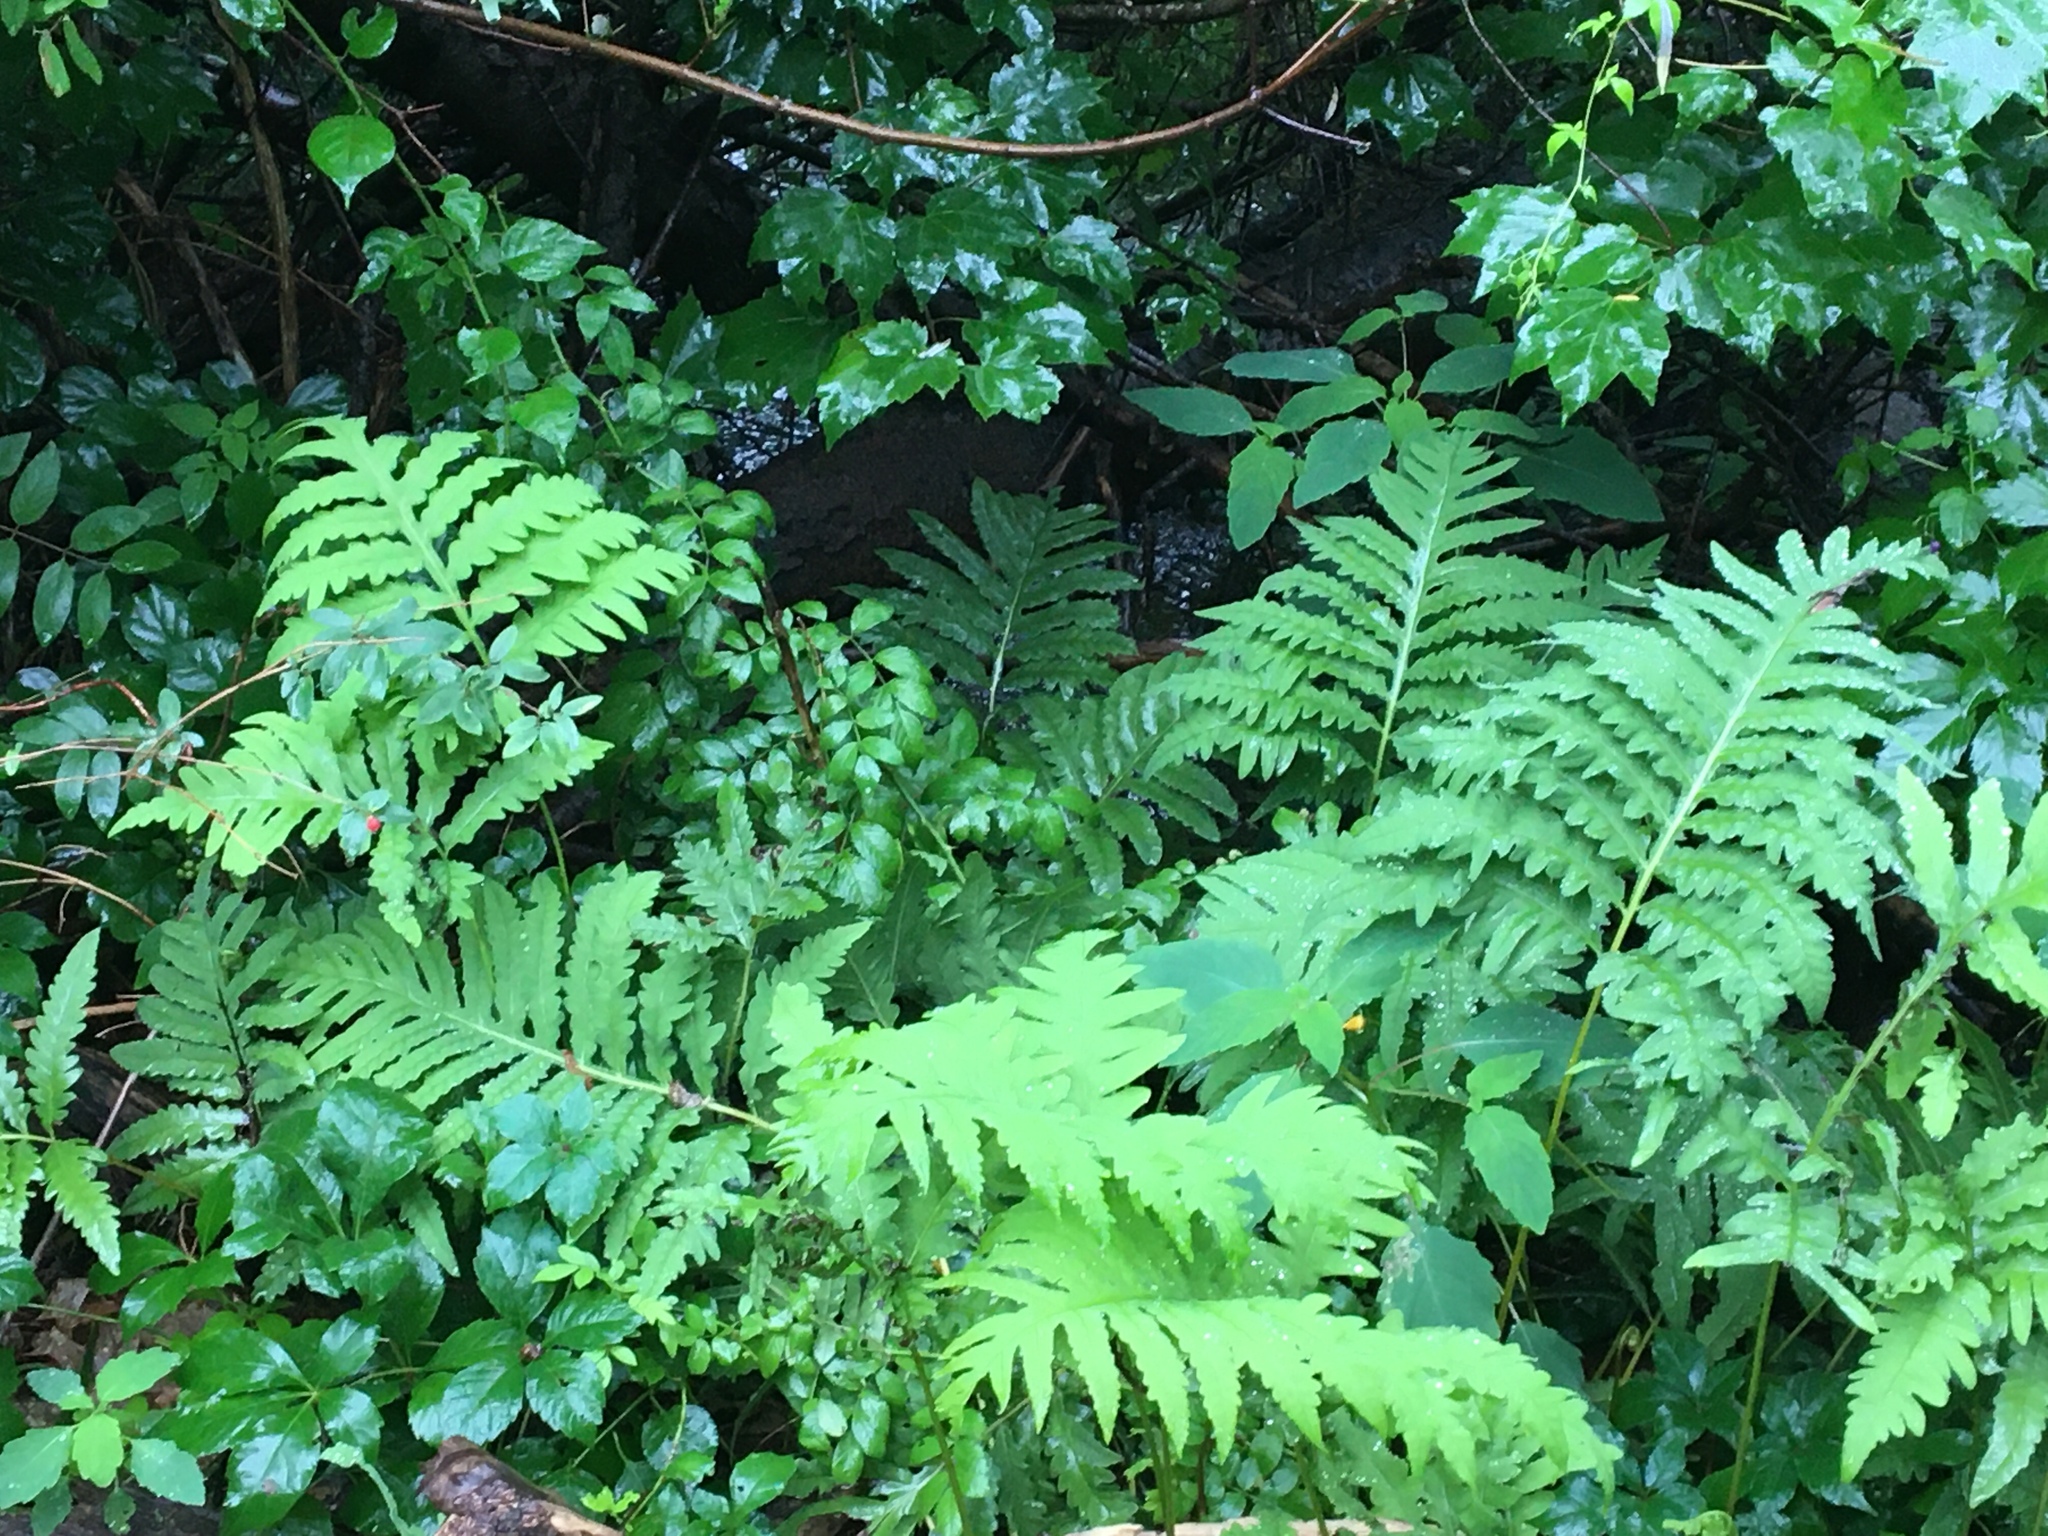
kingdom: Plantae
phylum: Tracheophyta
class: Polypodiopsida
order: Polypodiales
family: Onocleaceae
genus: Onoclea
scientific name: Onoclea sensibilis
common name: Sensitive fern
